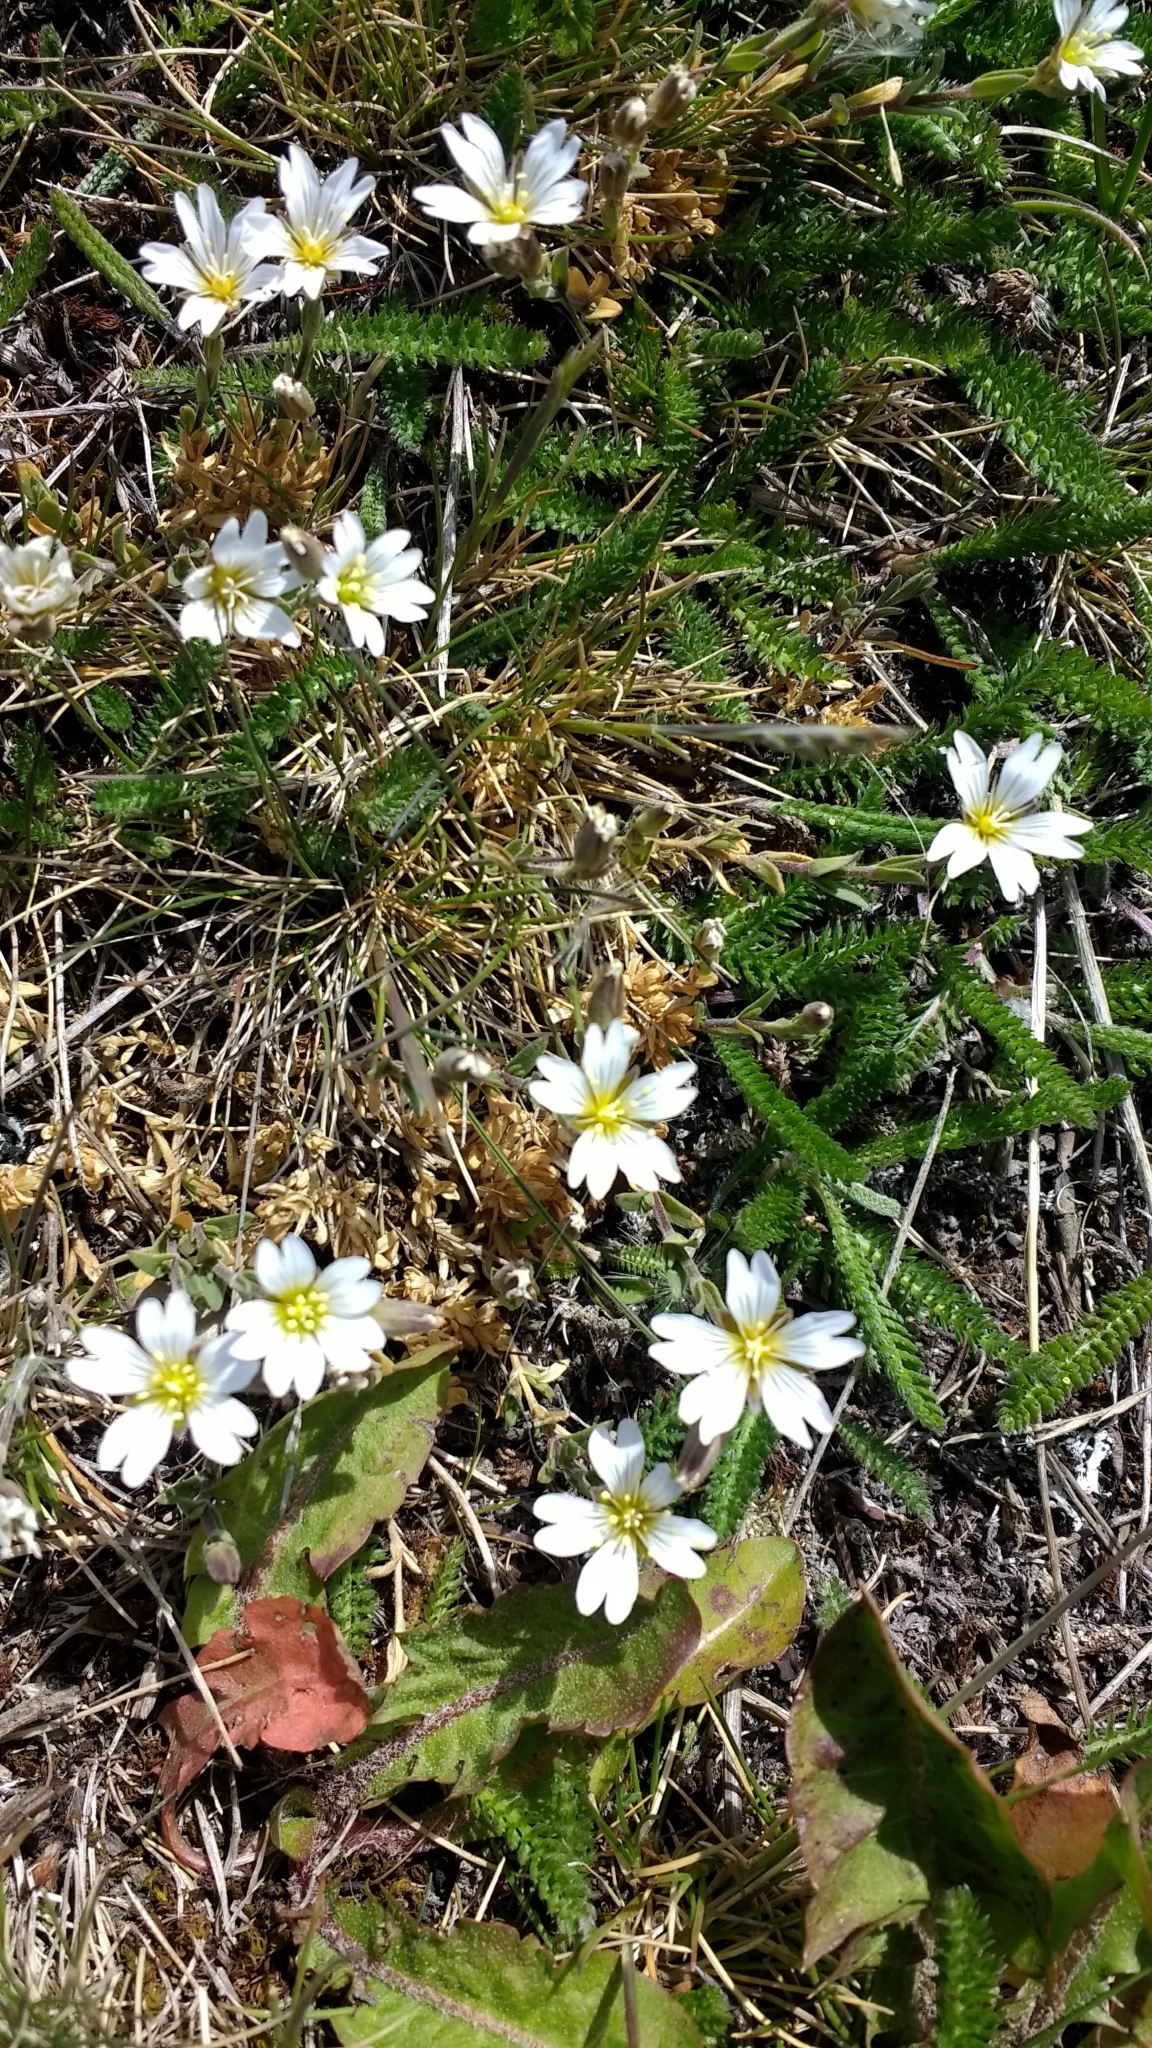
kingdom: Plantae
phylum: Tracheophyta
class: Magnoliopsida
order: Caryophyllales
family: Caryophyllaceae
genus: Cerastium
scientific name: Cerastium arvense
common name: Field mouse-ear
